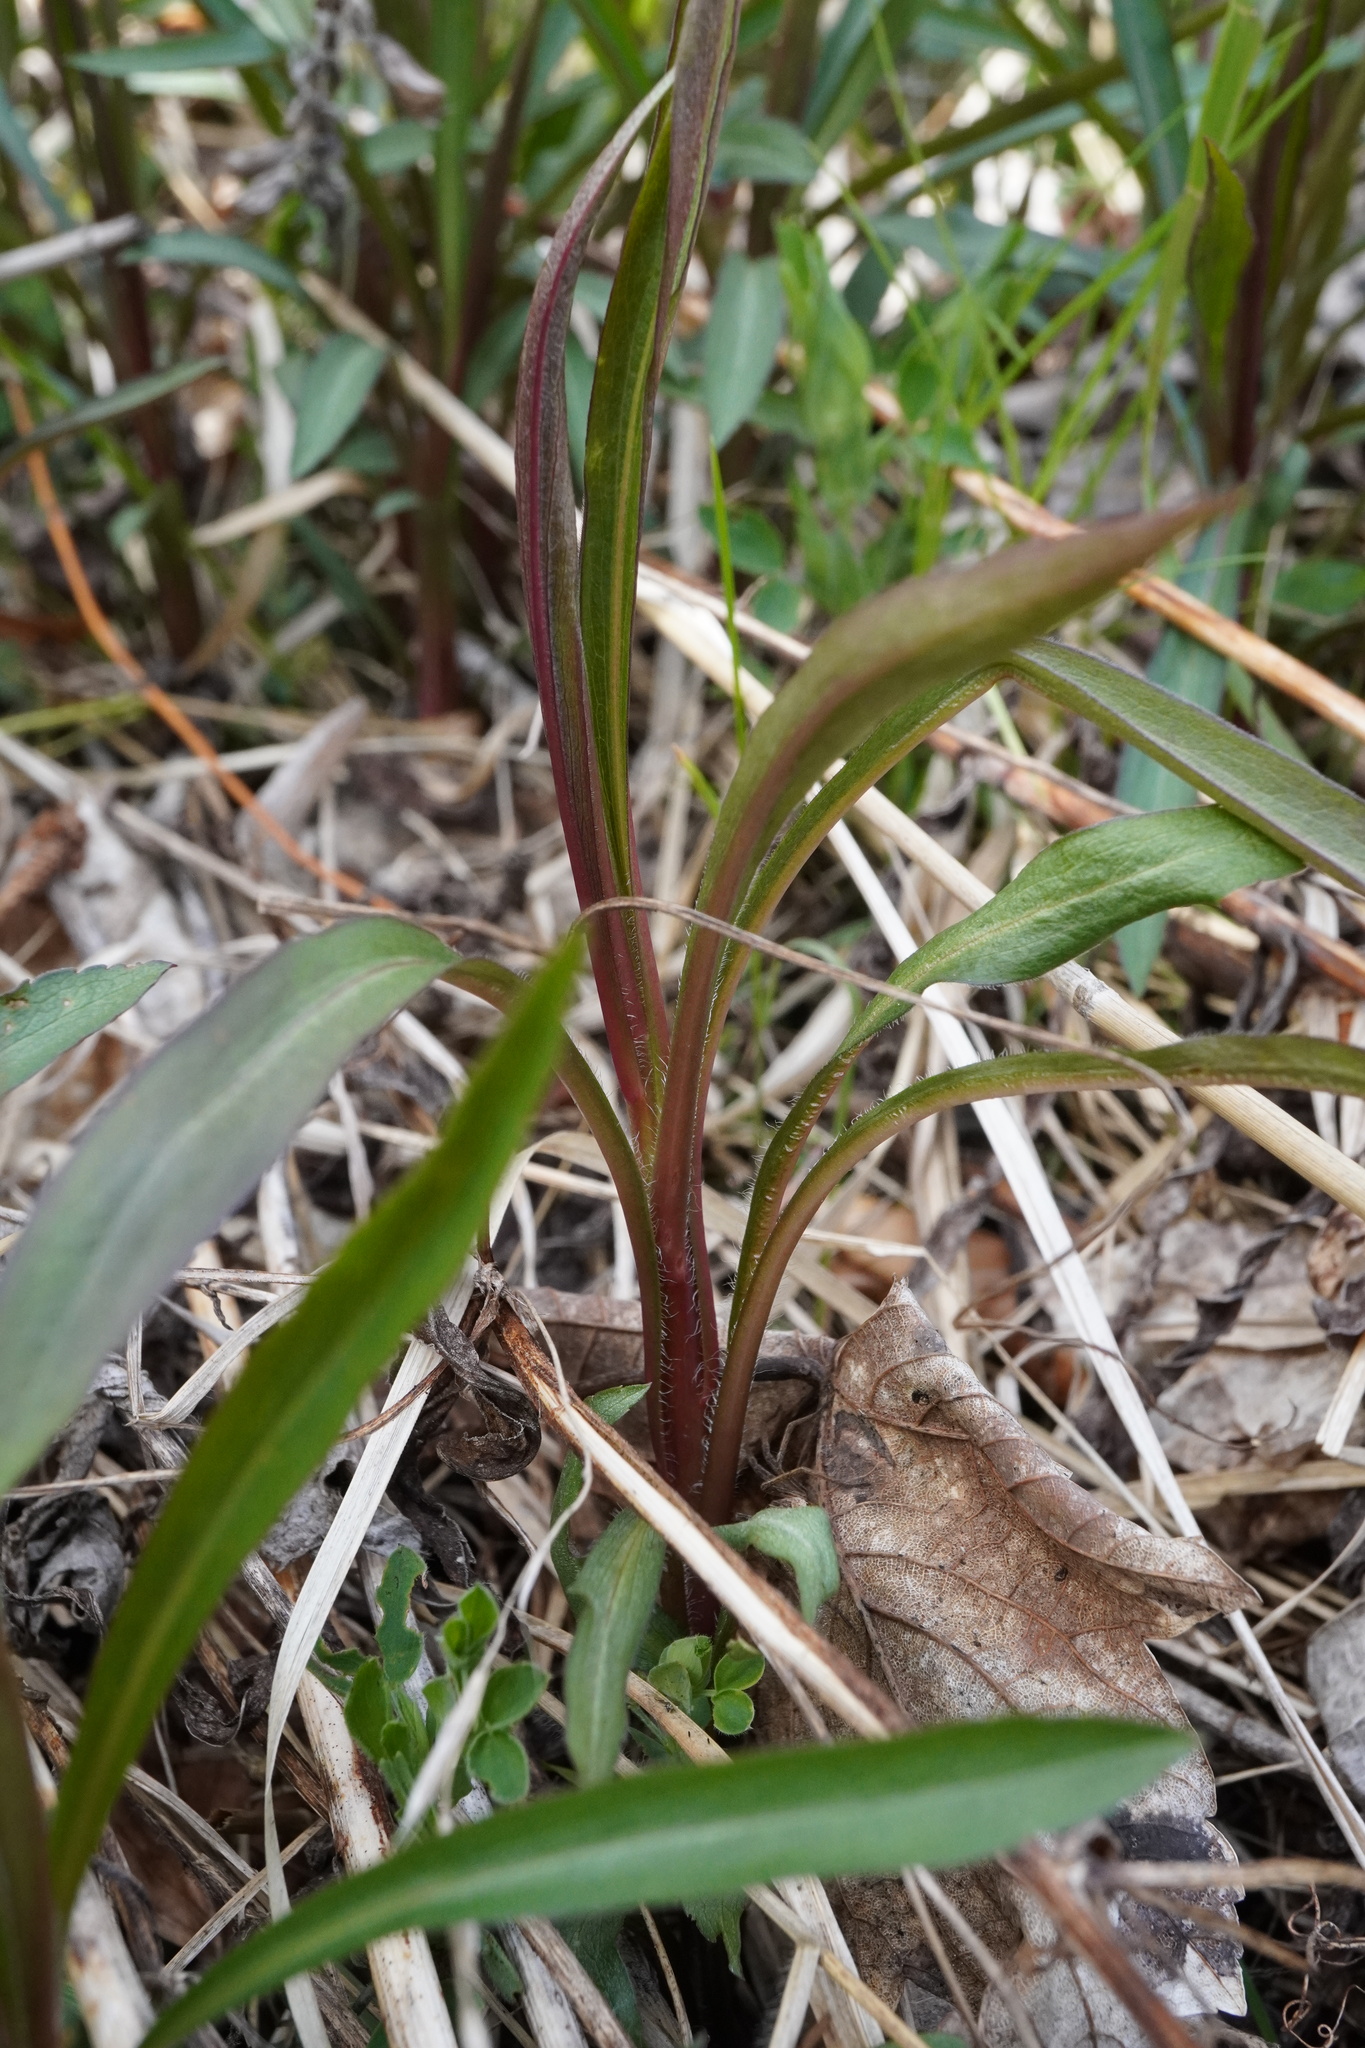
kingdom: Plantae
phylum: Tracheophyta
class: Magnoliopsida
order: Asterales
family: Asteraceae
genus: Solidago
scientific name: Solidago gigantea
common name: Giant goldenrod
